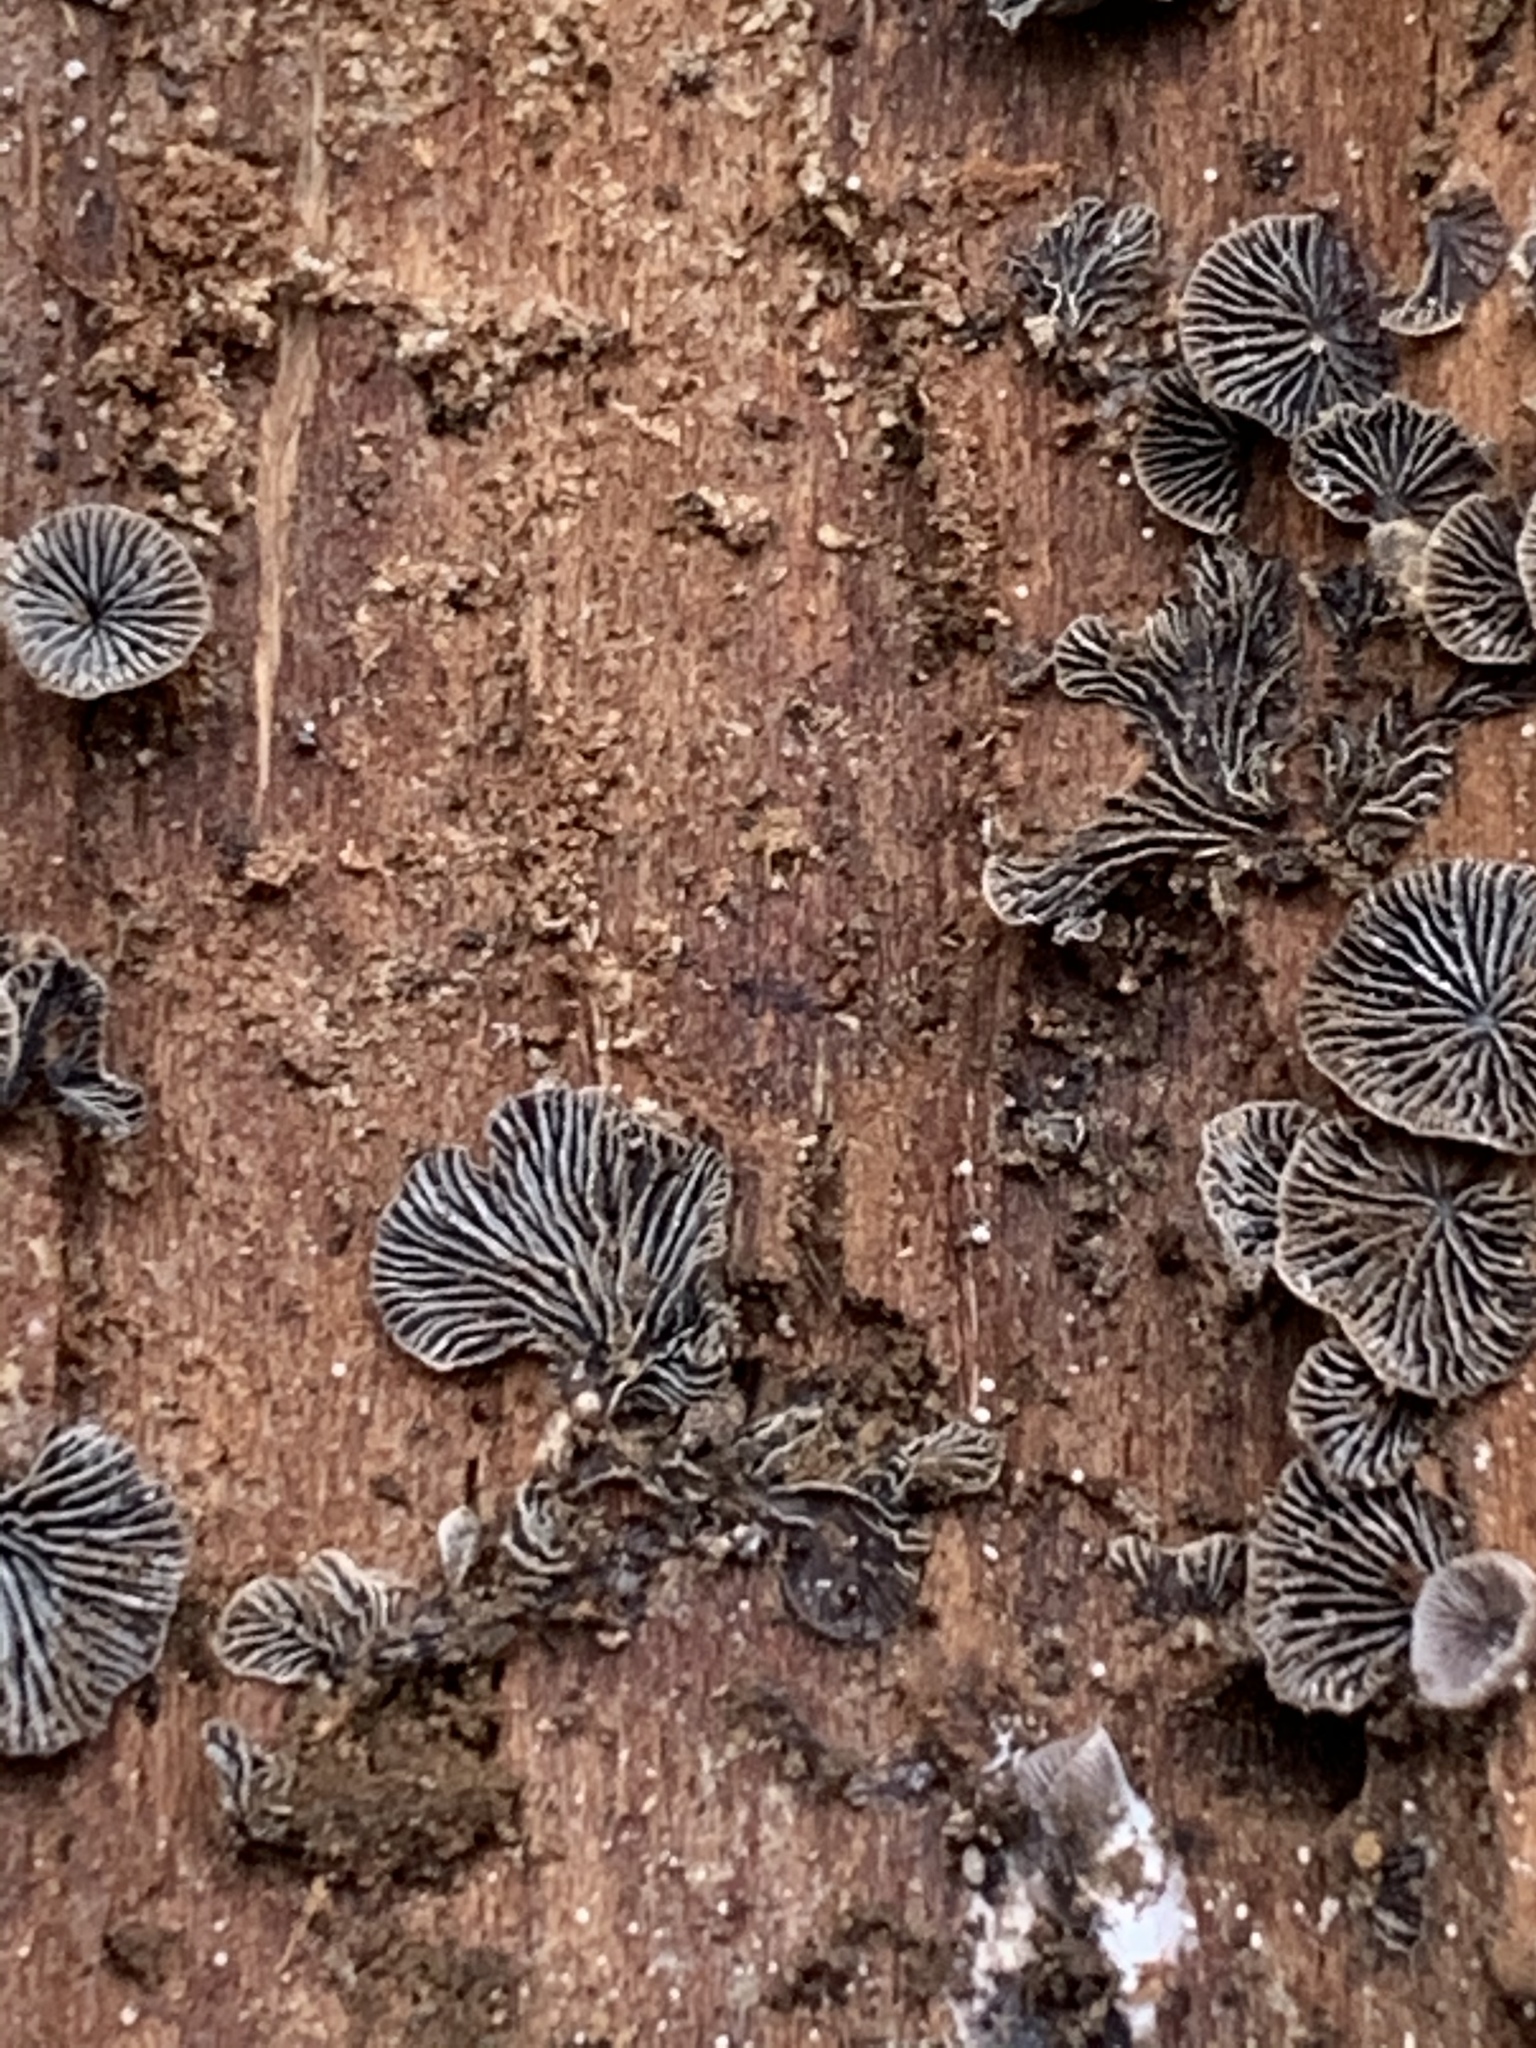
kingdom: Fungi
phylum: Basidiomycota
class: Agaricomycetes
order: Agaricales
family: Pleurotaceae
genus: Resupinatus
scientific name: Resupinatus applicatus
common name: Smoked oysterling
